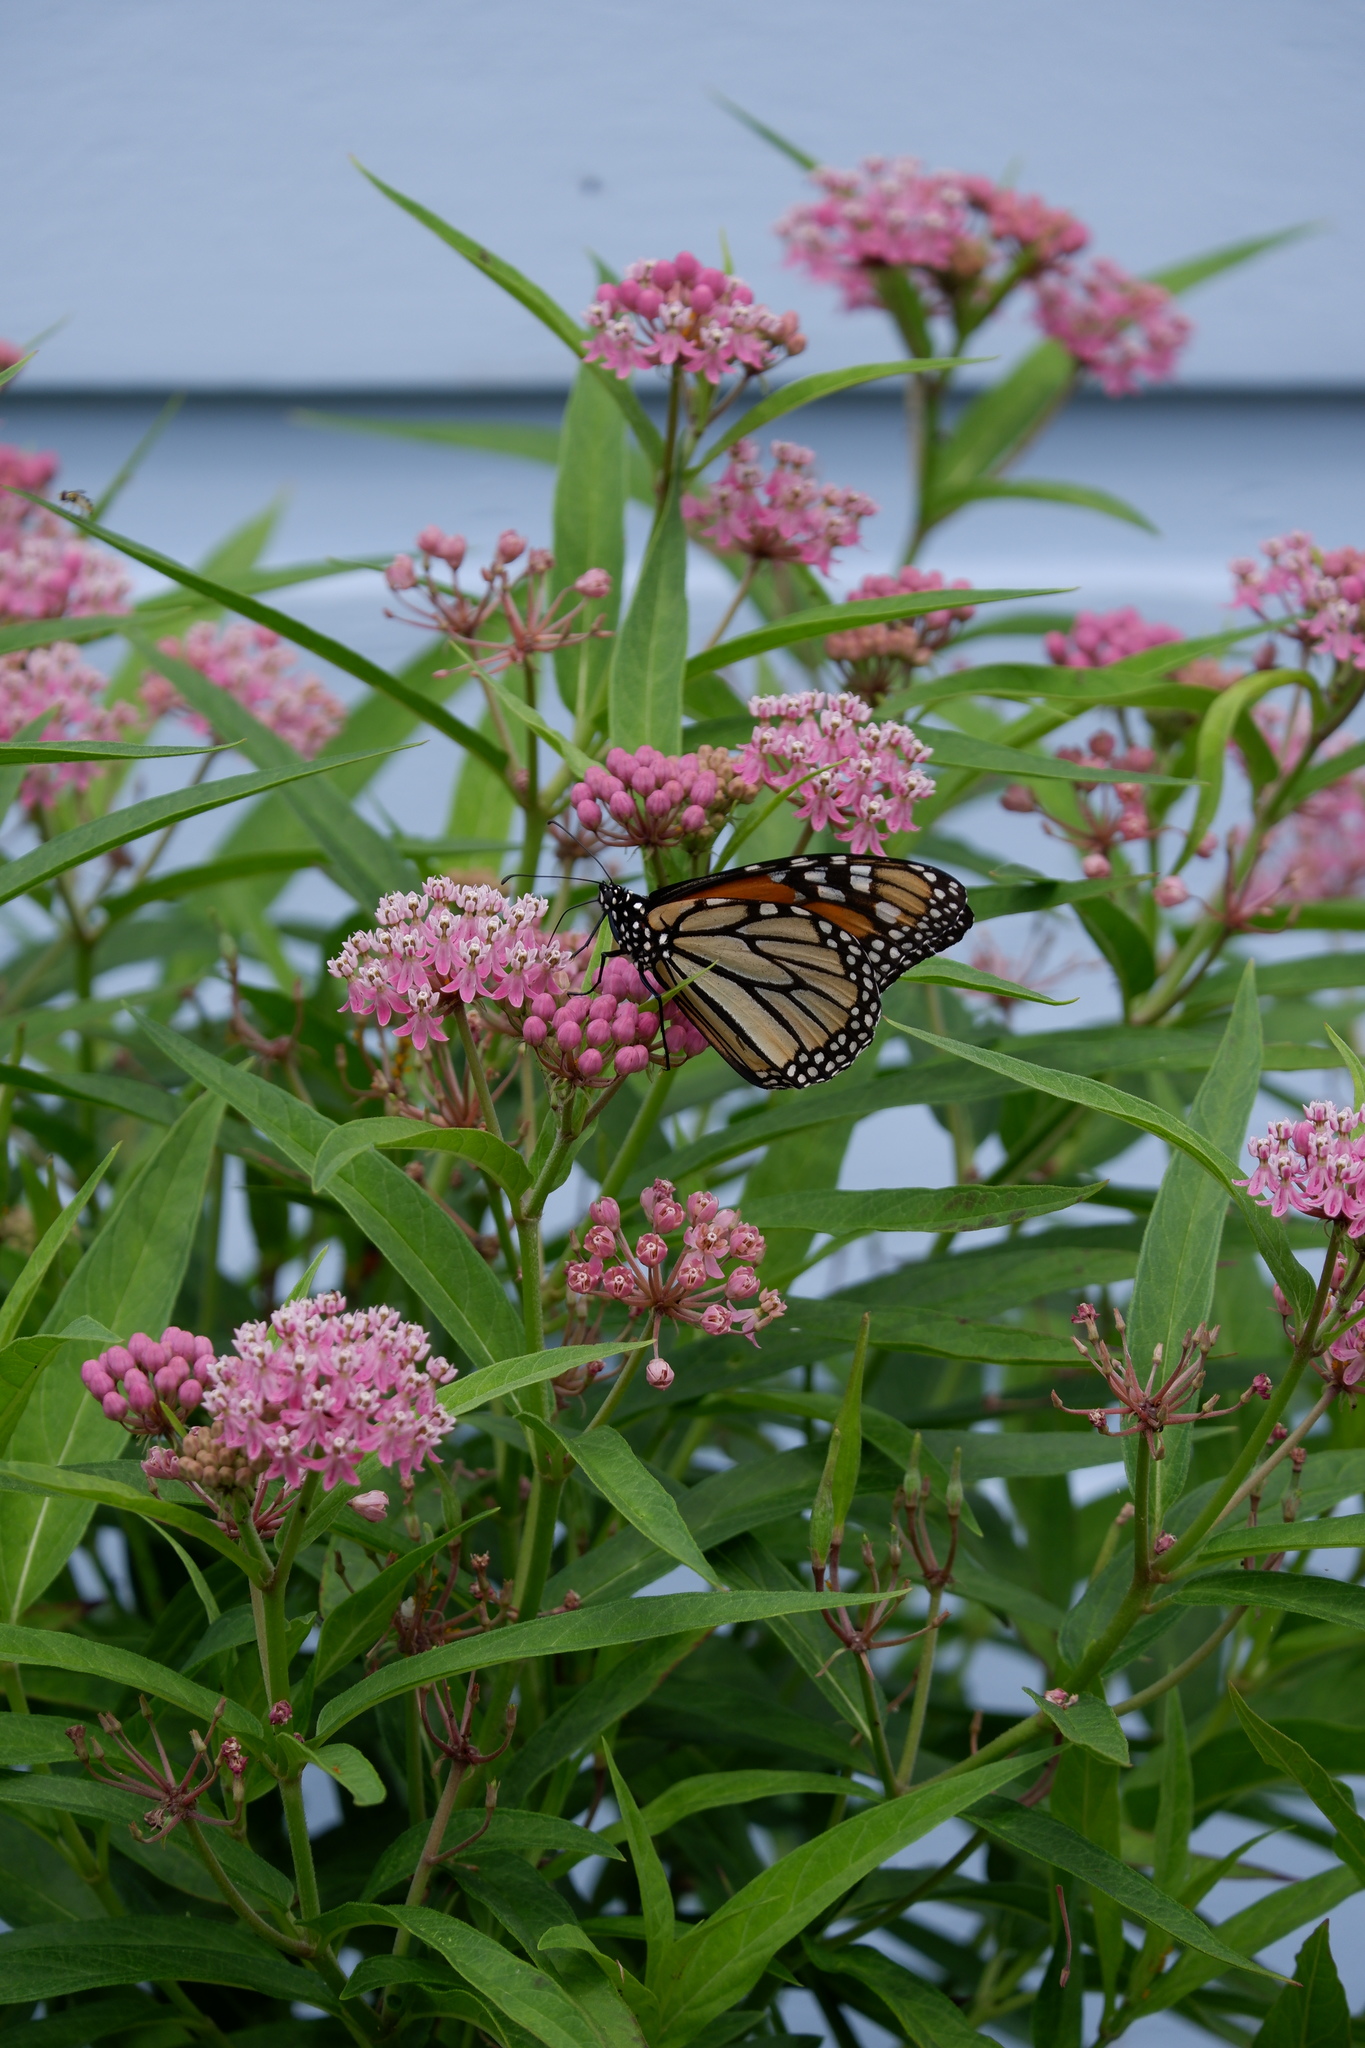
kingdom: Animalia
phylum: Arthropoda
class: Insecta
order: Lepidoptera
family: Nymphalidae
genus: Danaus
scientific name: Danaus plexippus
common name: Monarch
